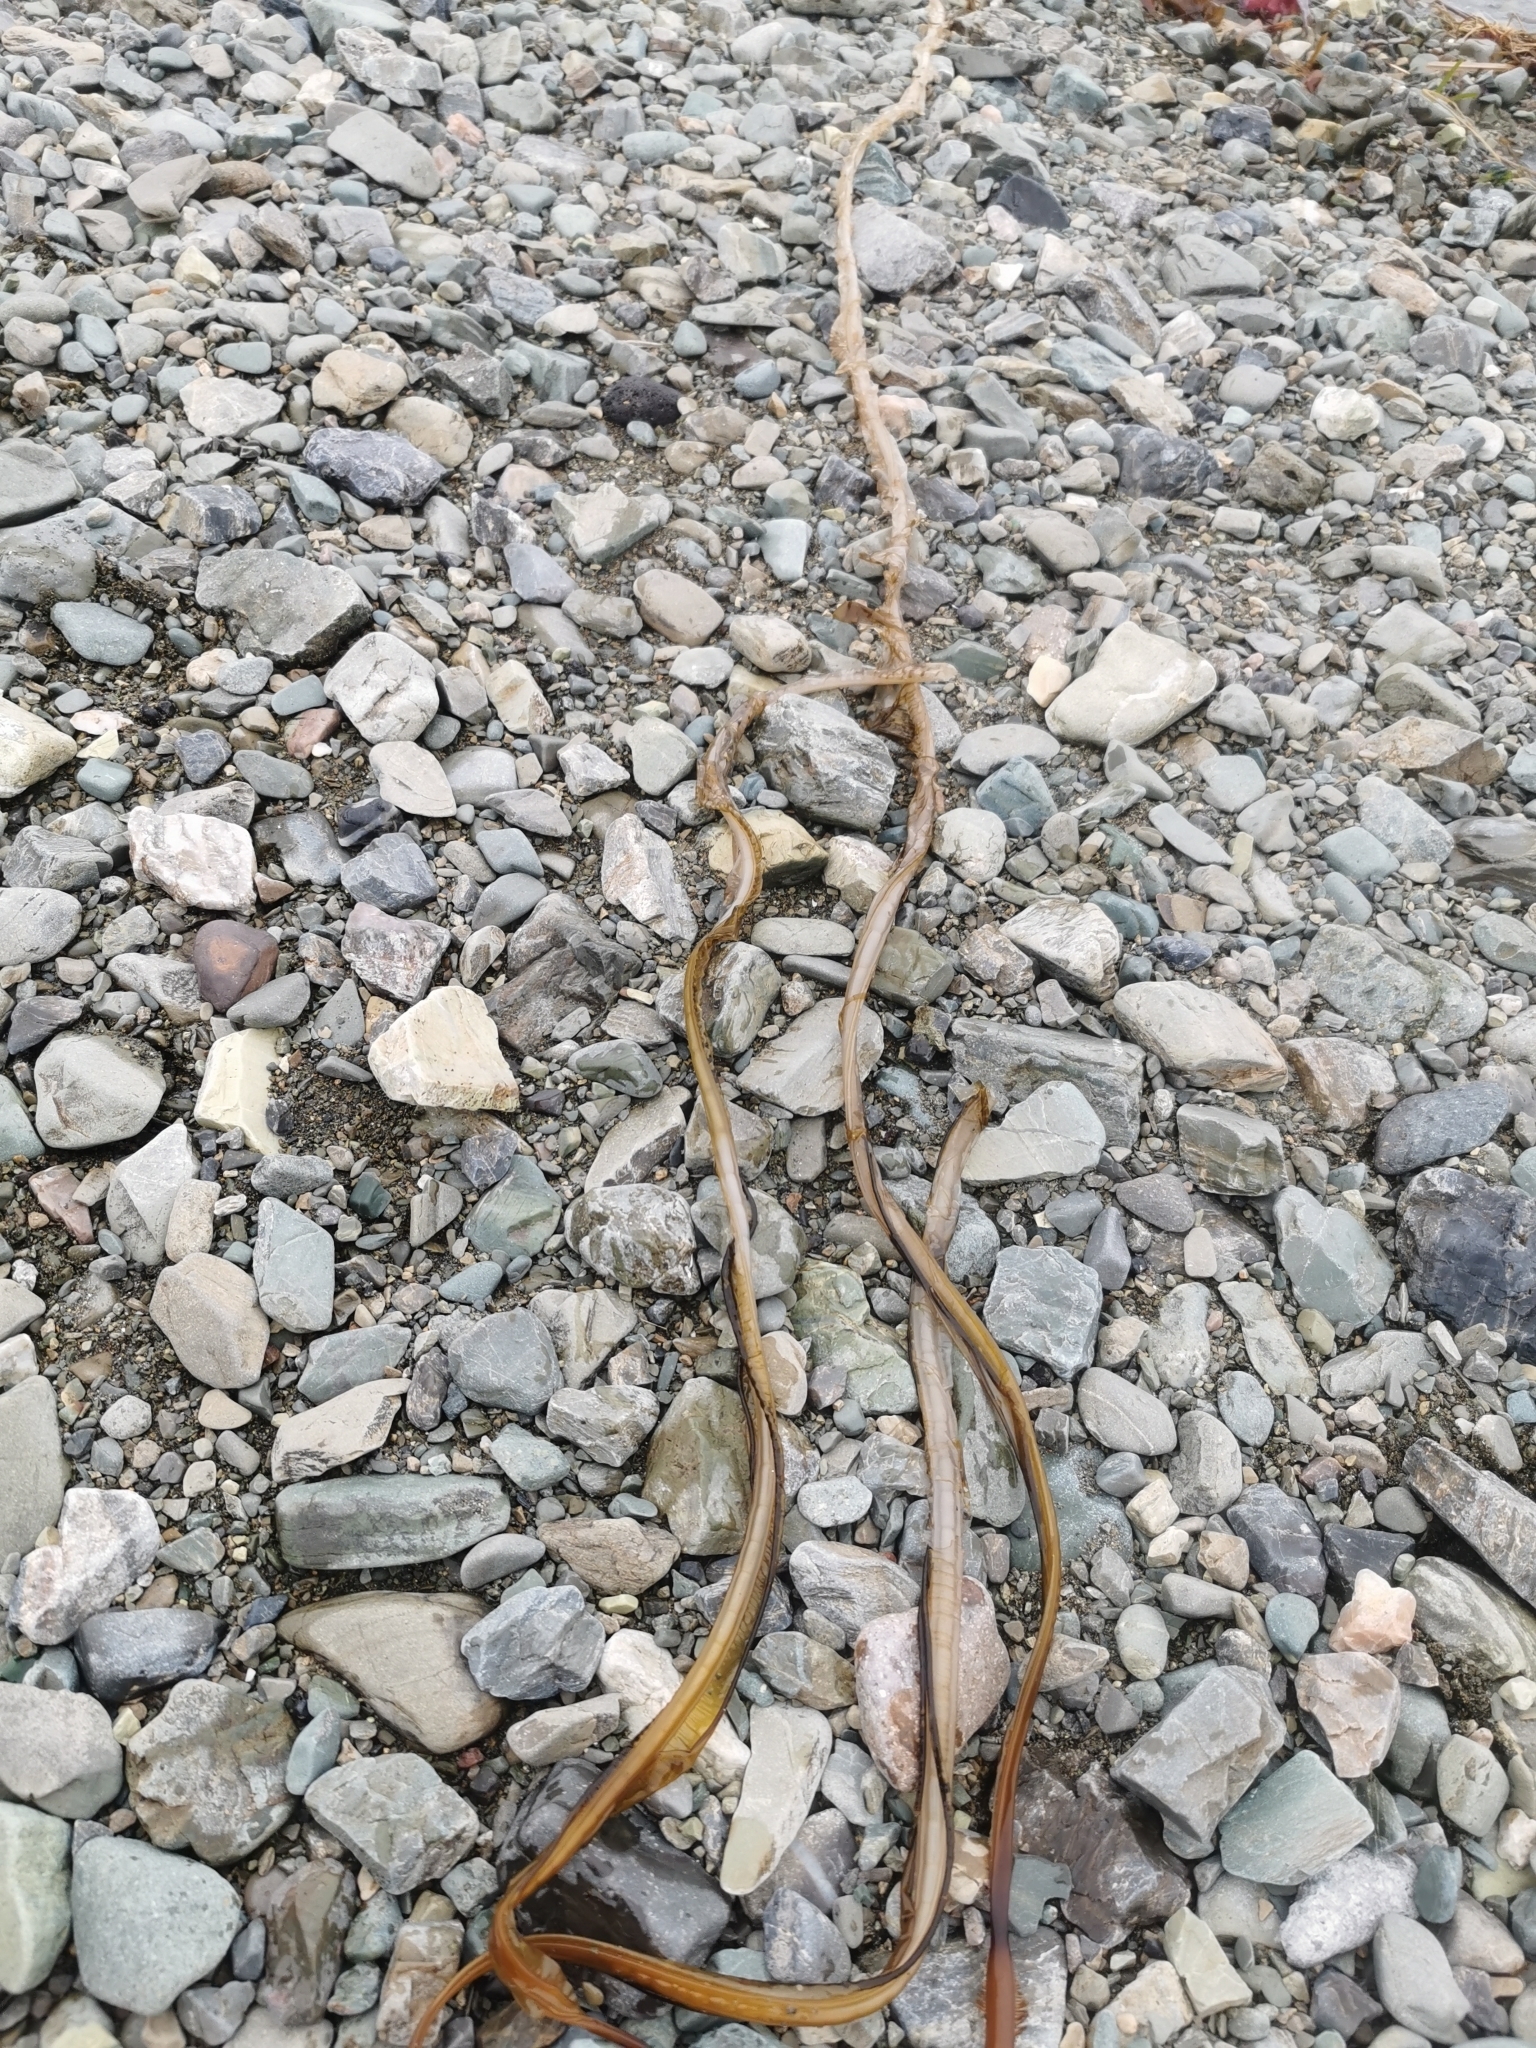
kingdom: Chromista
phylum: Ochrophyta
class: Phaeophyceae
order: Laminariales
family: Alariaceae
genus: Eualaria
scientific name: Eualaria
